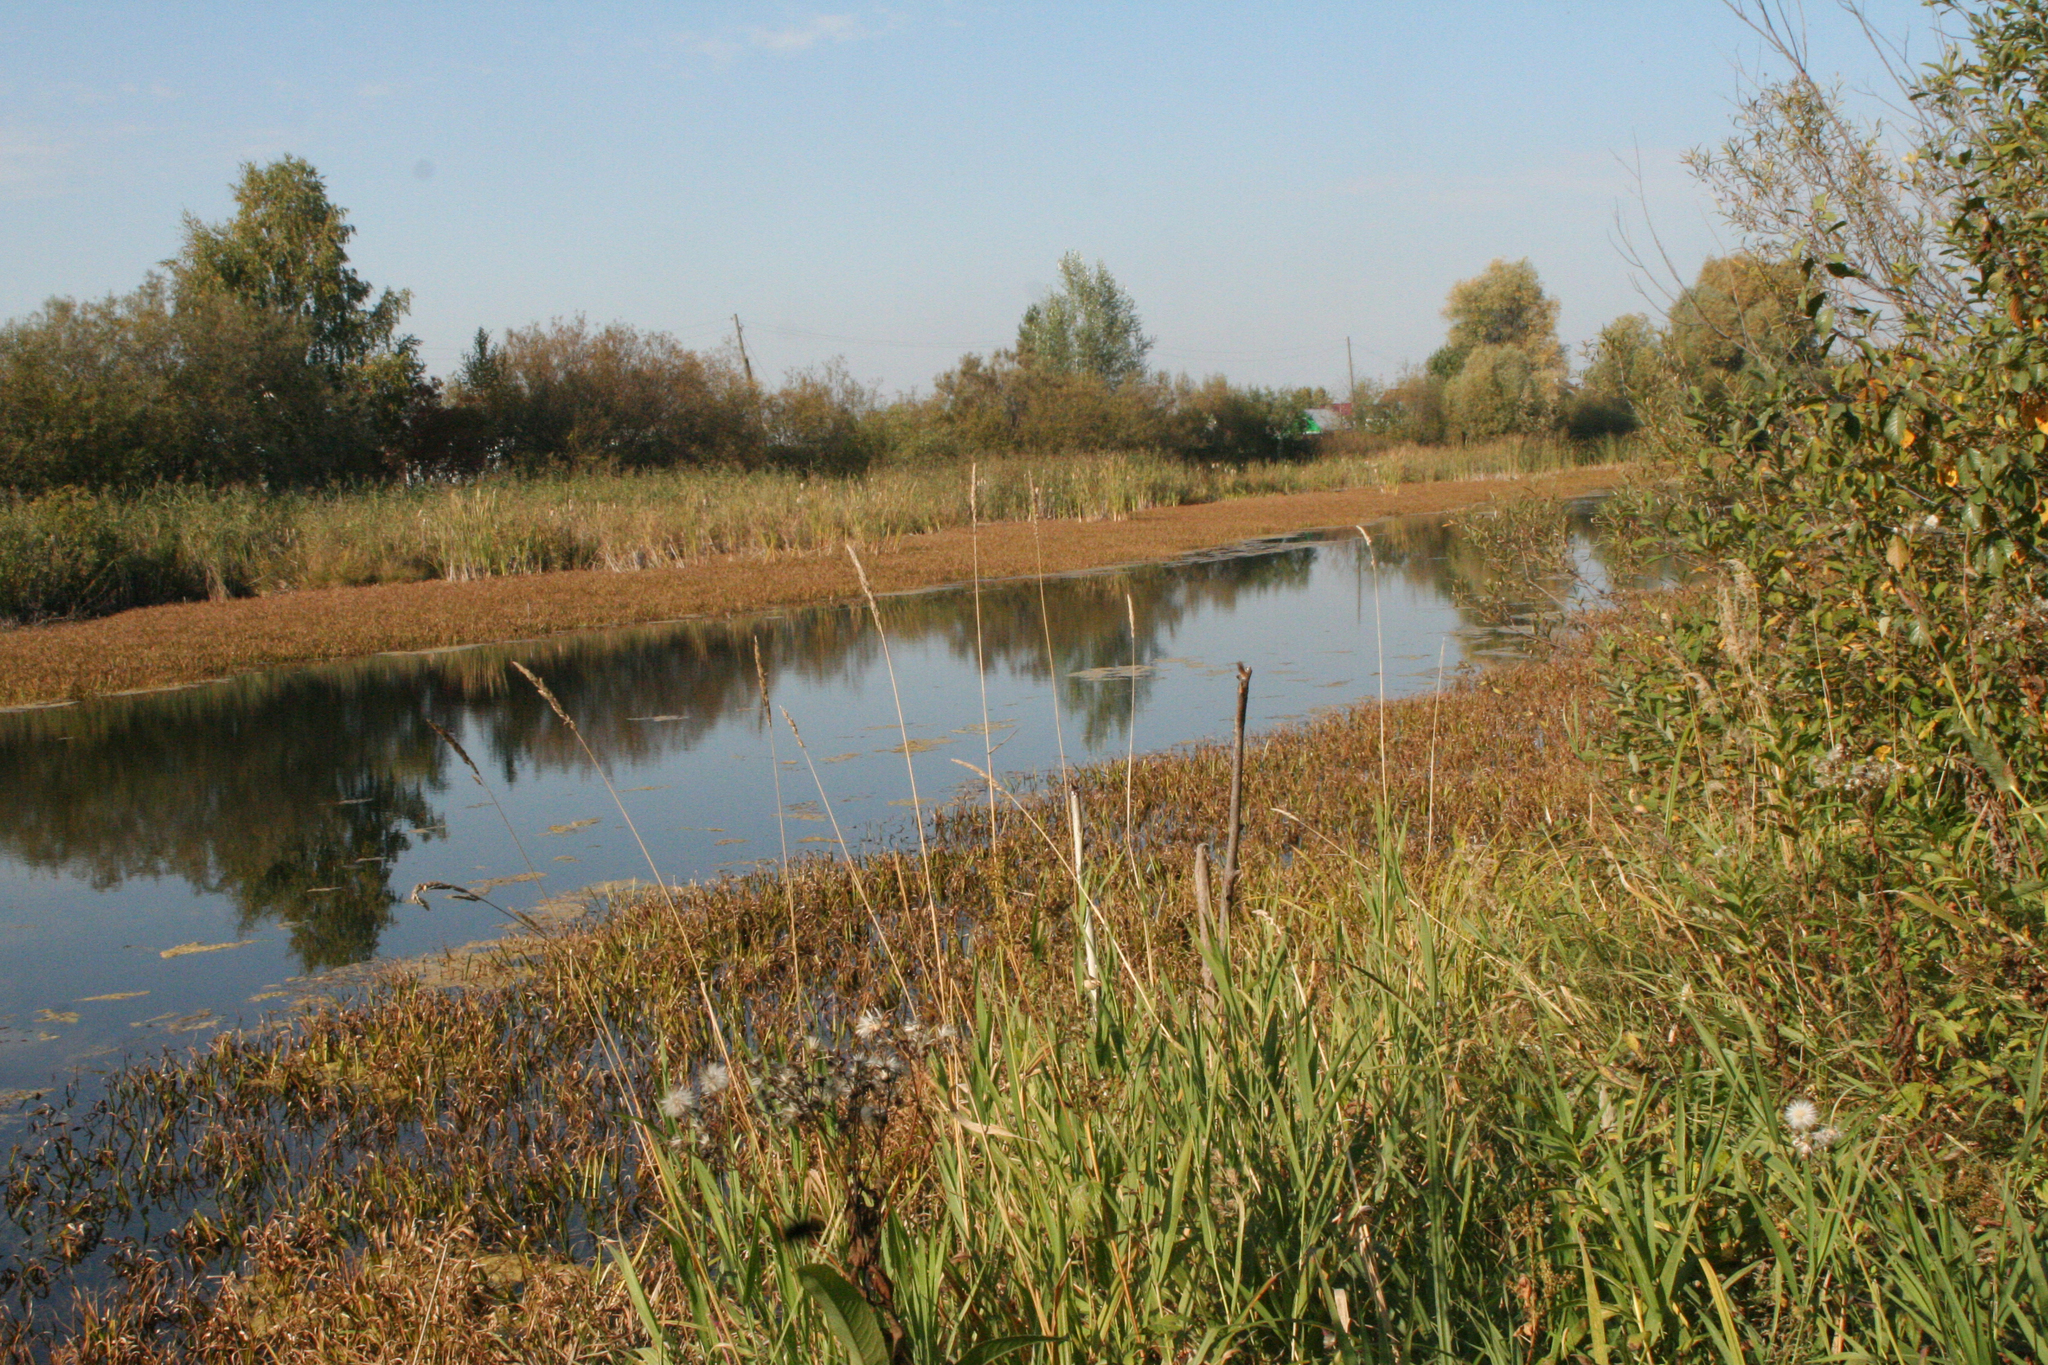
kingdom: Plantae
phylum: Tracheophyta
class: Liliopsida
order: Alismatales
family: Hydrocharitaceae
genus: Stratiotes
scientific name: Stratiotes aloides
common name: Water-soldier
